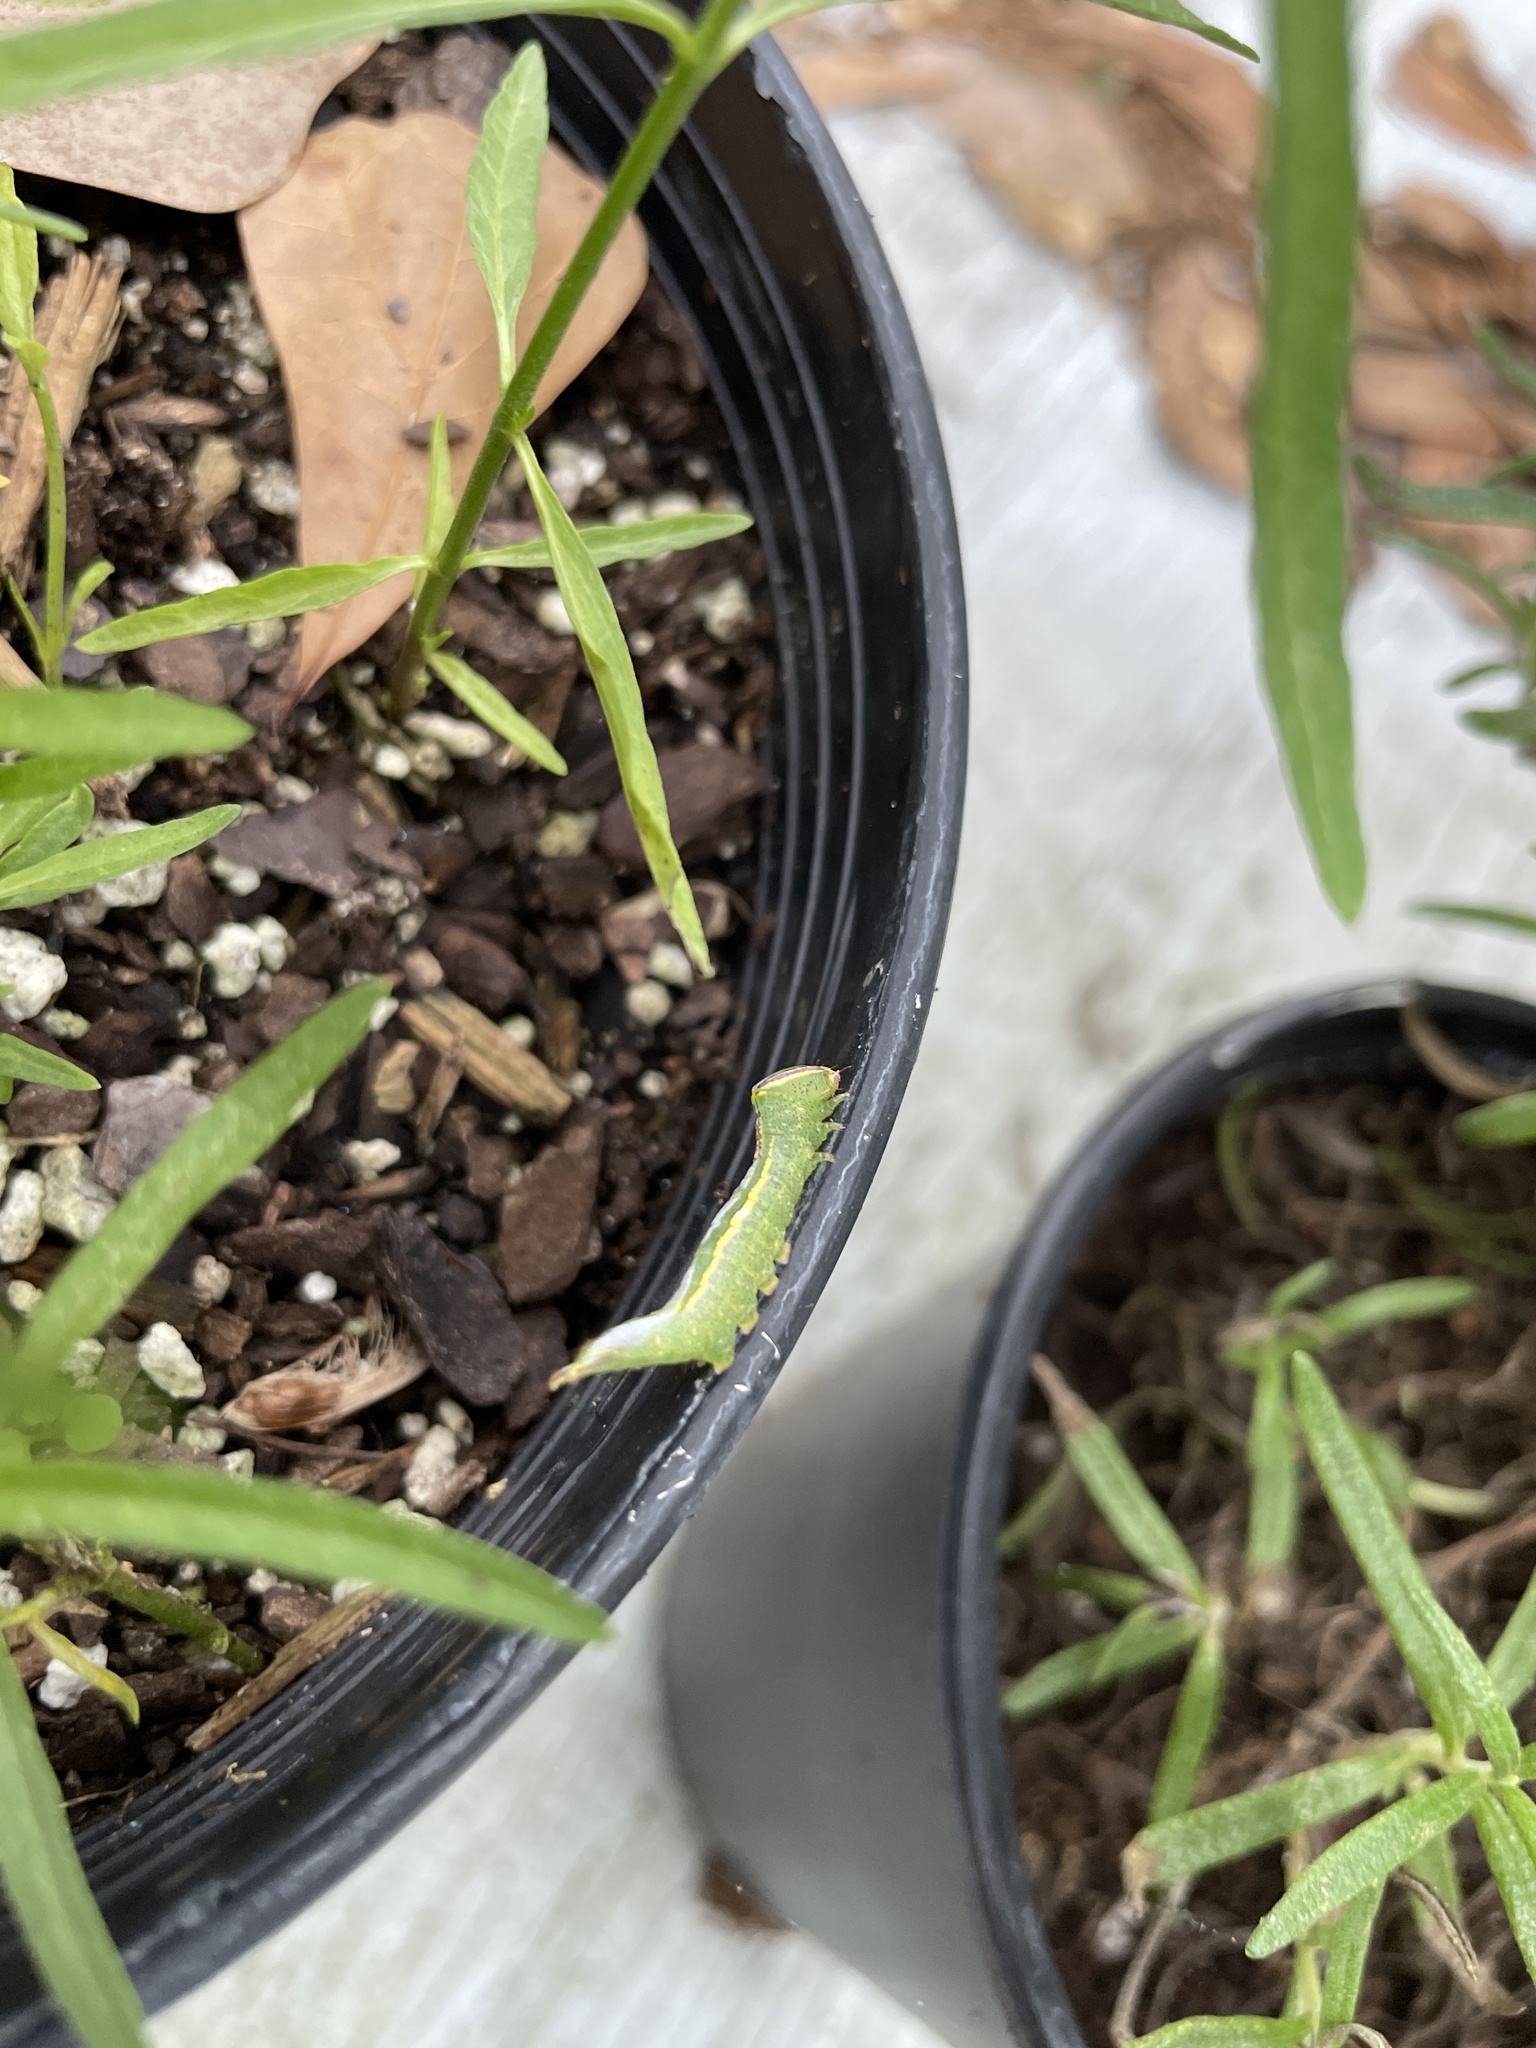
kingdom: Animalia
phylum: Arthropoda
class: Insecta
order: Lepidoptera
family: Notodontidae
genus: Disphragis
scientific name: Disphragis Cecrita guttivitta
